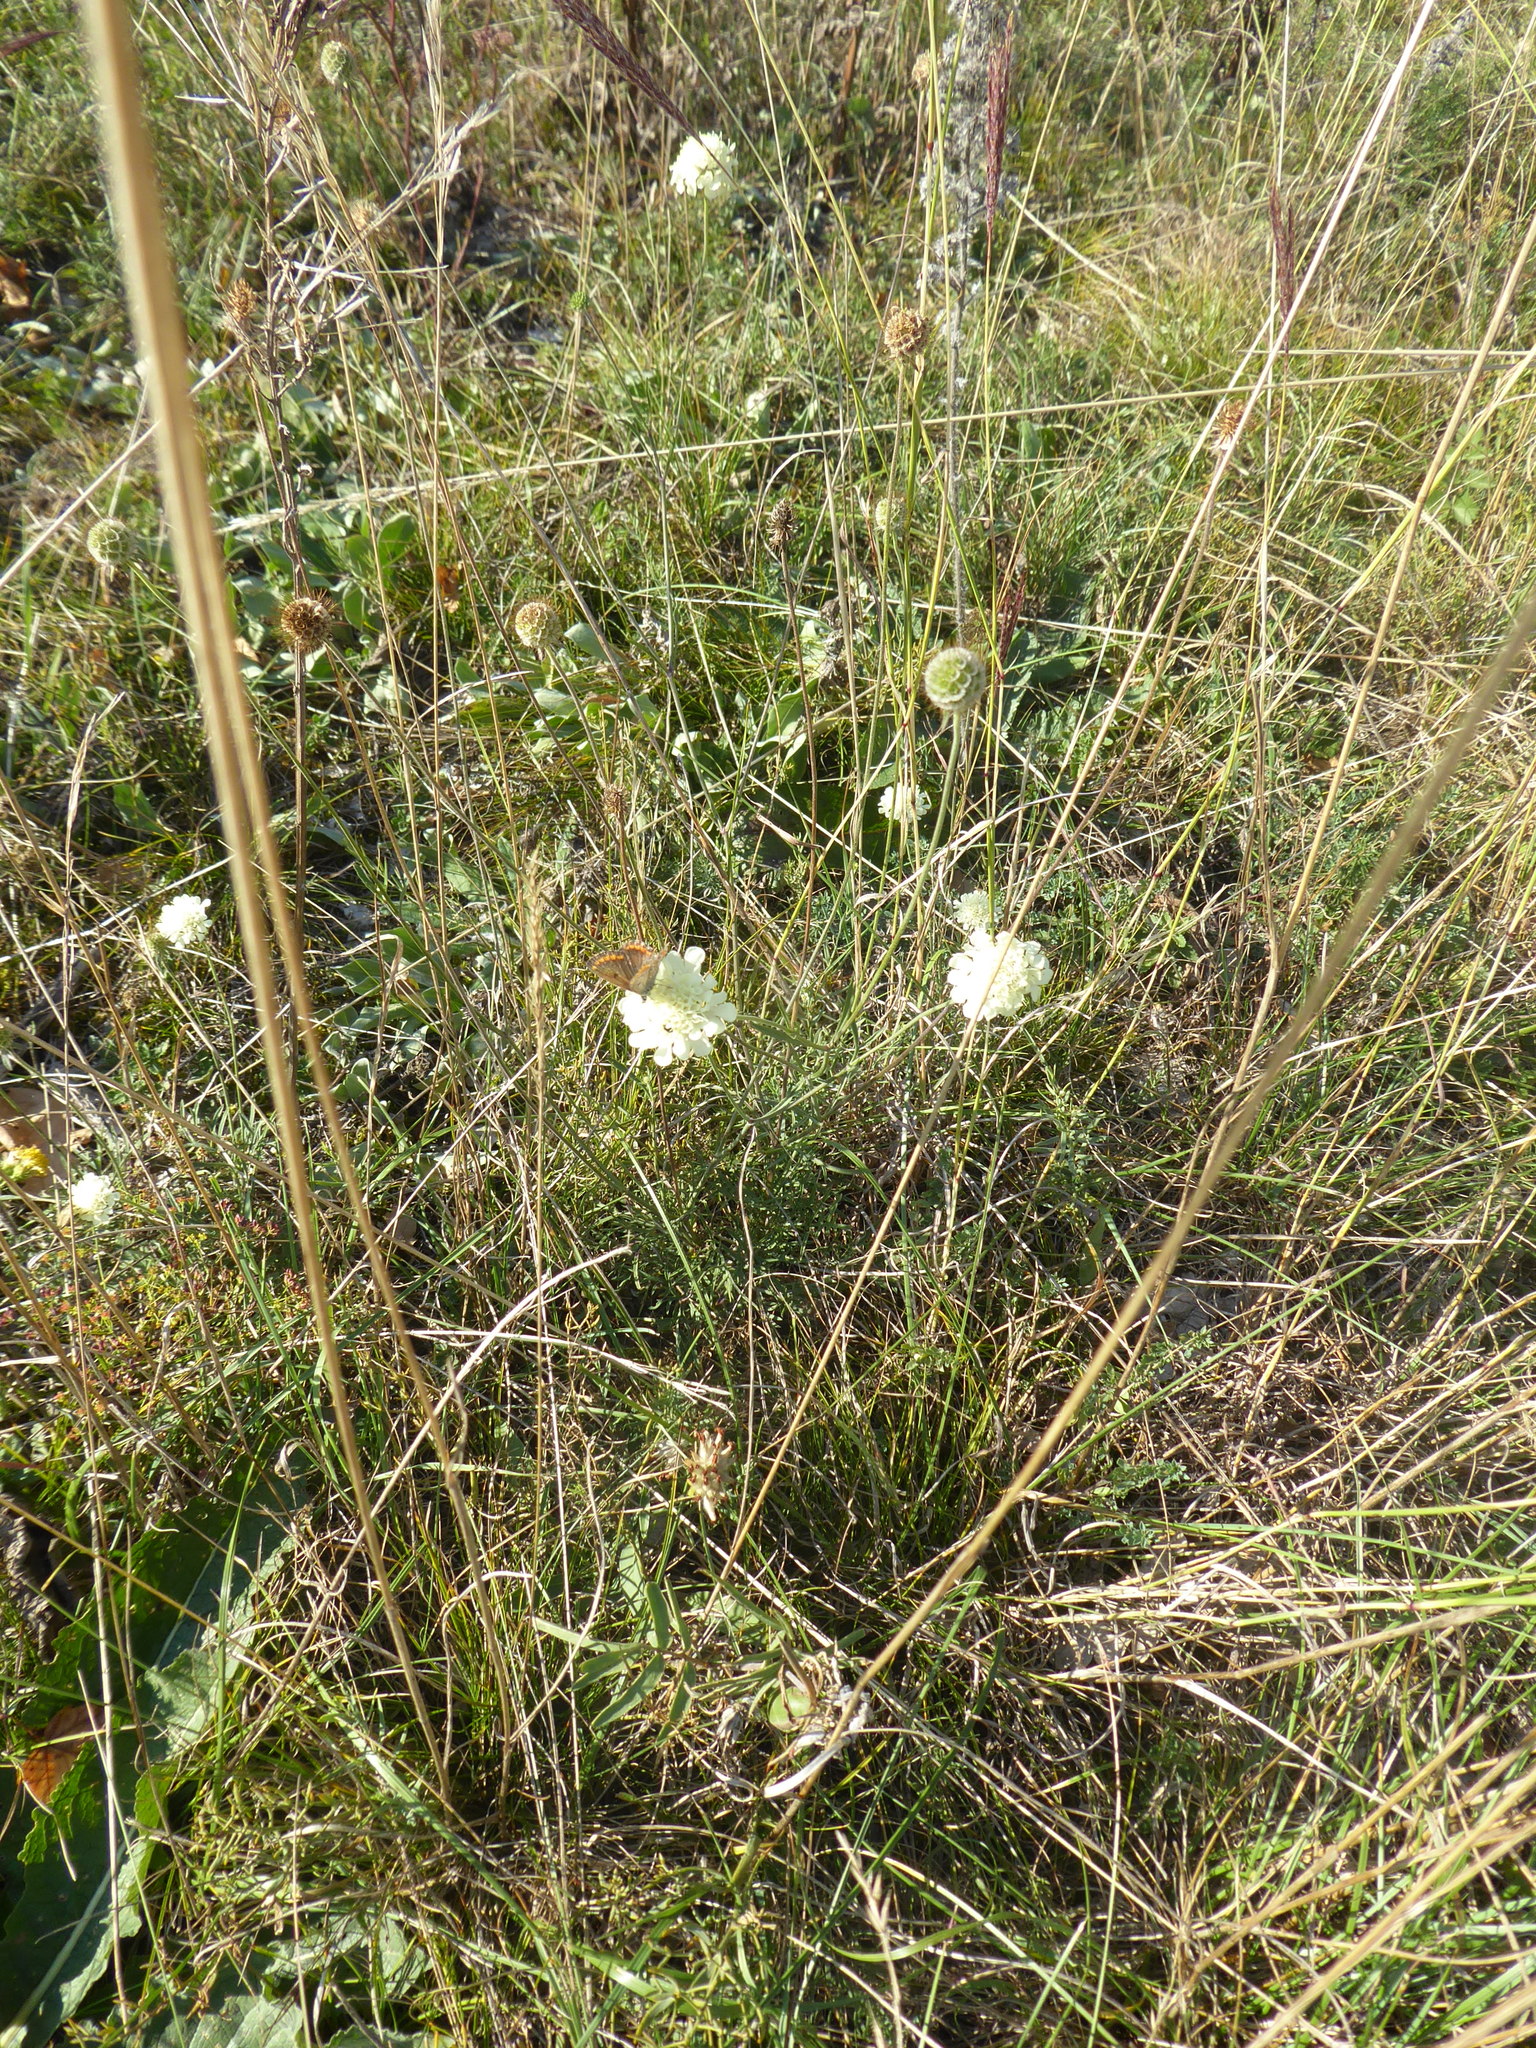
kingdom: Plantae
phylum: Tracheophyta
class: Magnoliopsida
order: Dipsacales
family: Caprifoliaceae
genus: Scabiosa
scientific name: Scabiosa ochroleuca
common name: Cream pincushions
